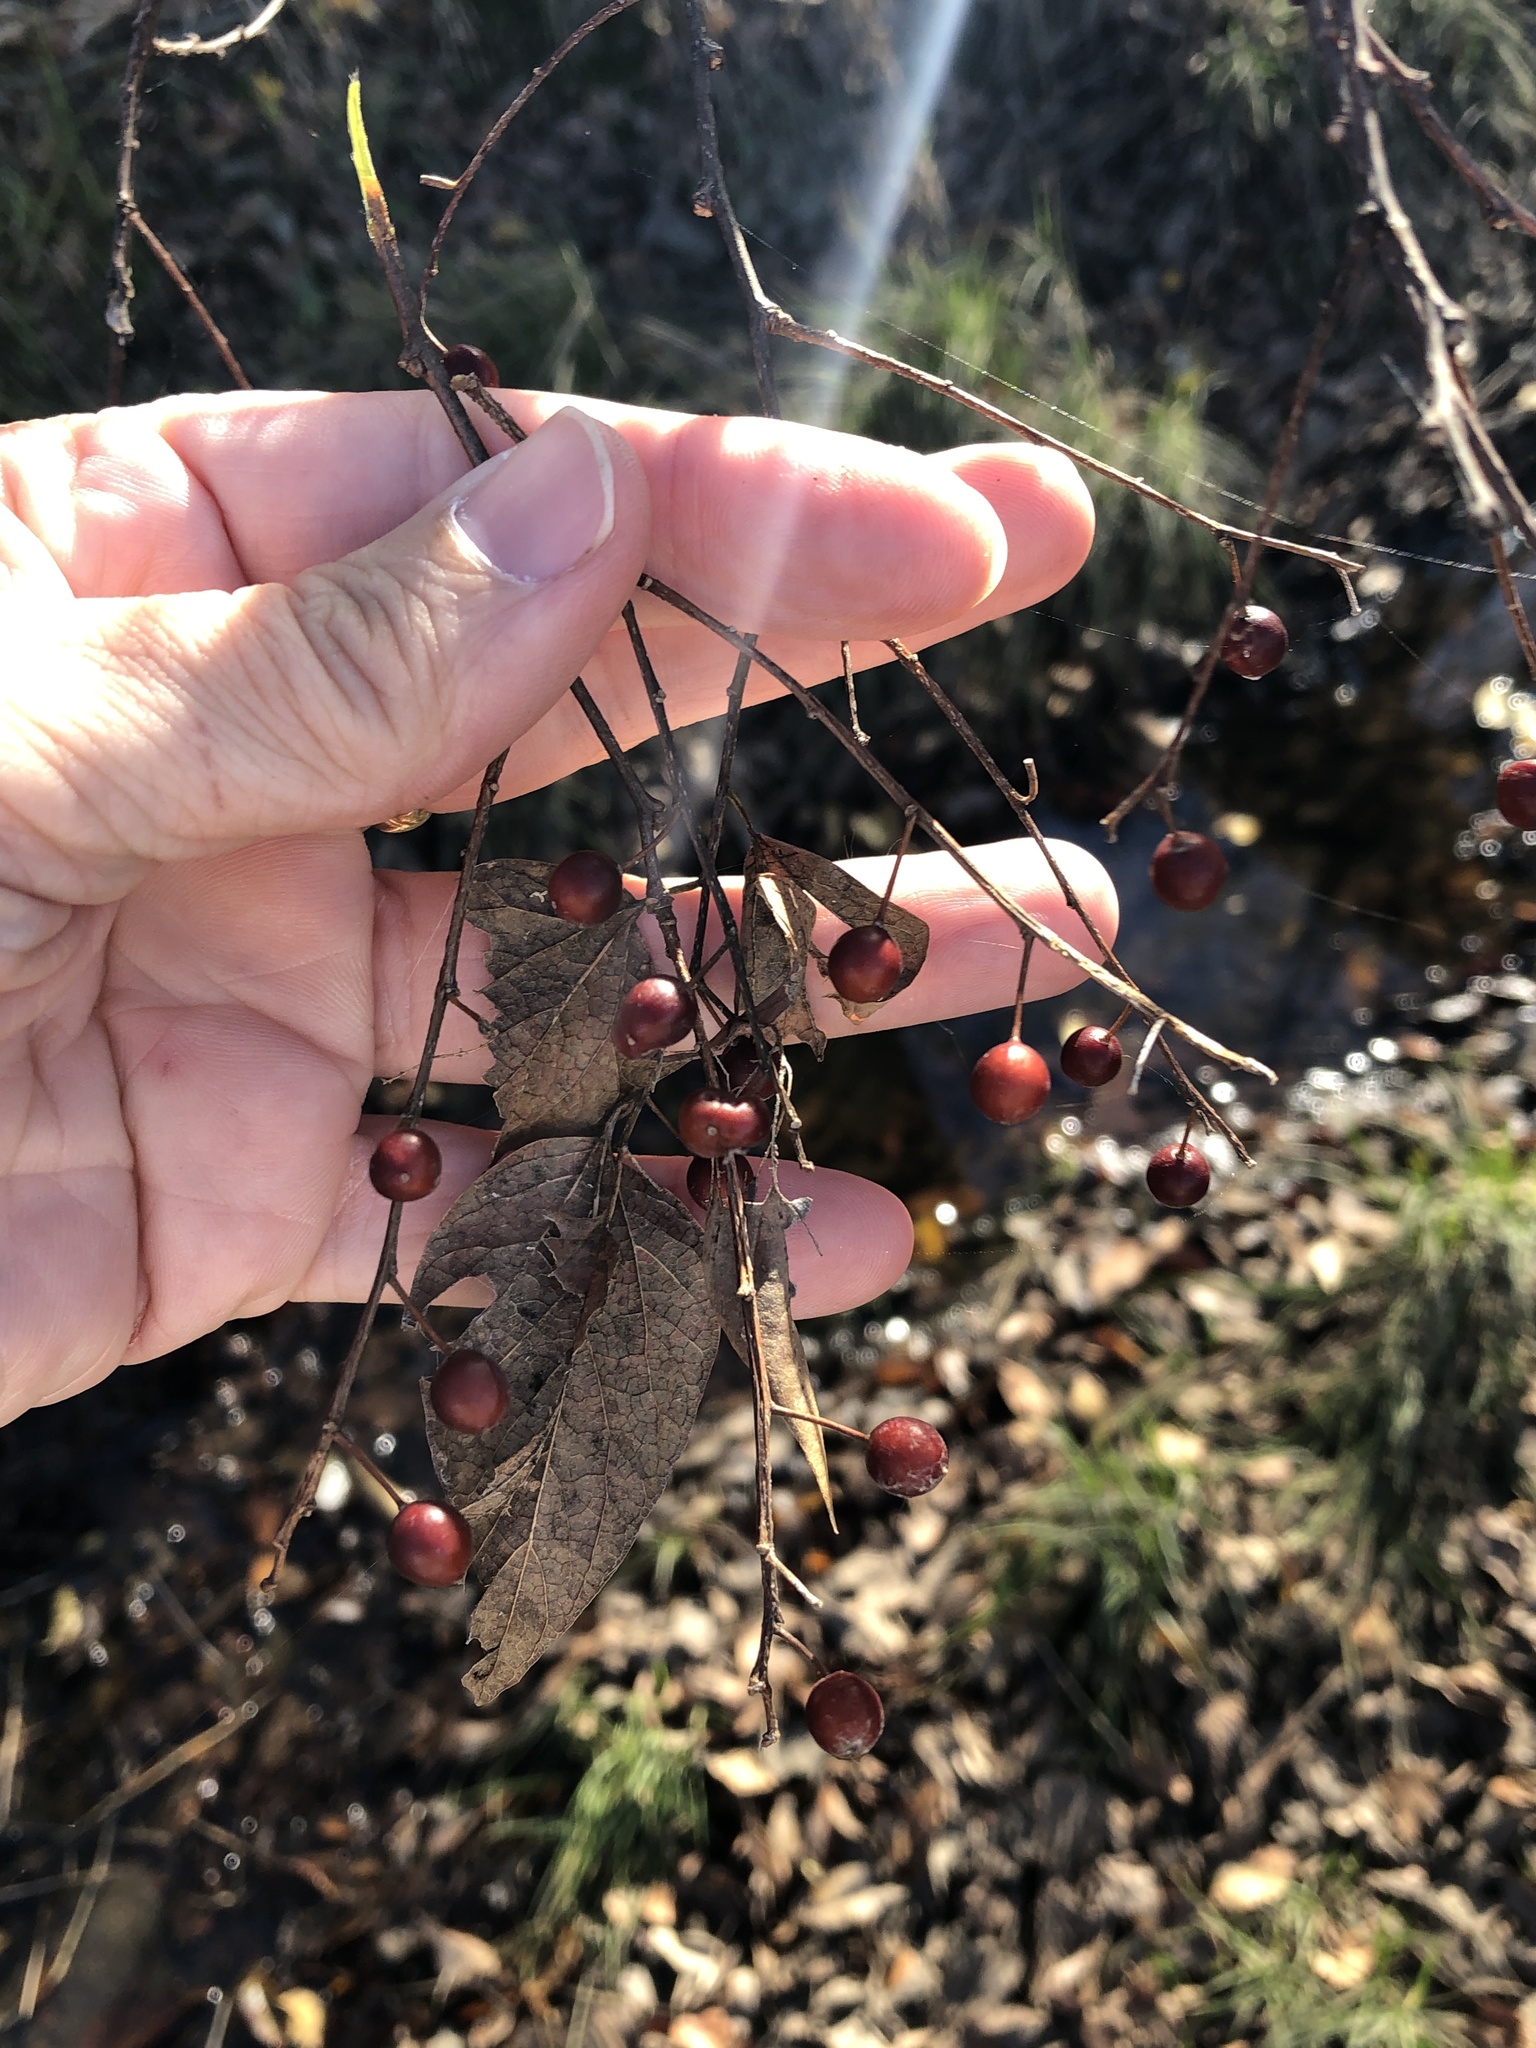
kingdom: Plantae
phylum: Tracheophyta
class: Magnoliopsida
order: Rosales
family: Cannabaceae
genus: Celtis
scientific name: Celtis laevigata
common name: Sugarberry
